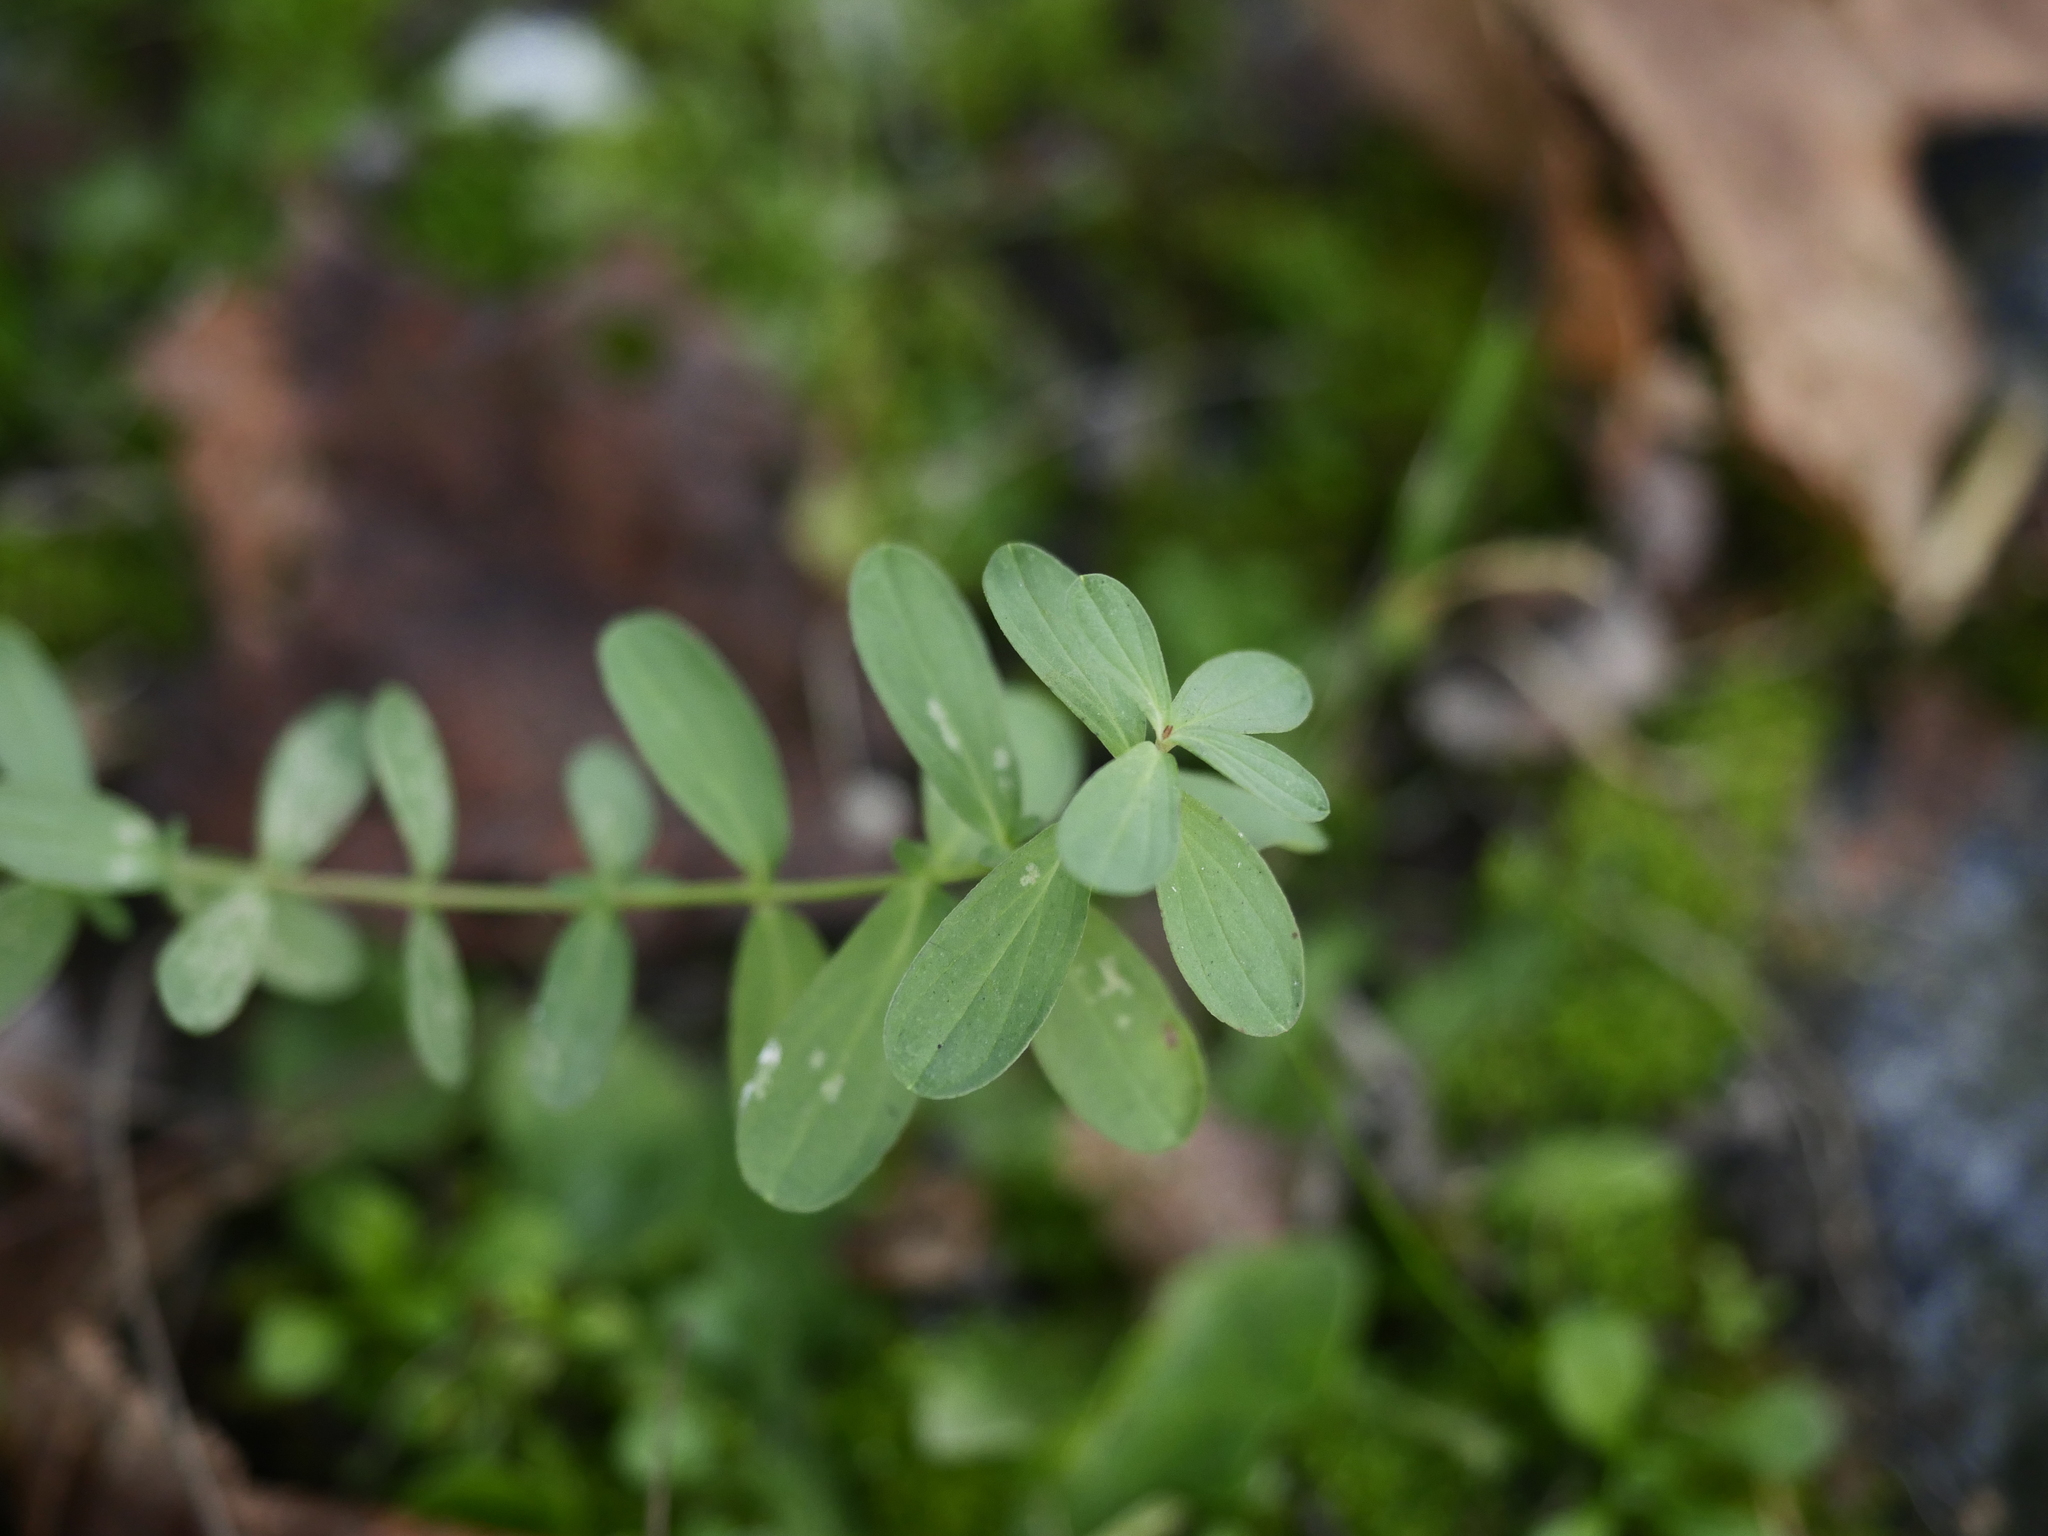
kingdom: Plantae
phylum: Tracheophyta
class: Magnoliopsida
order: Malpighiales
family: Hypericaceae
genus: Hypericum
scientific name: Hypericum perforatum
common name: Common st. johnswort
